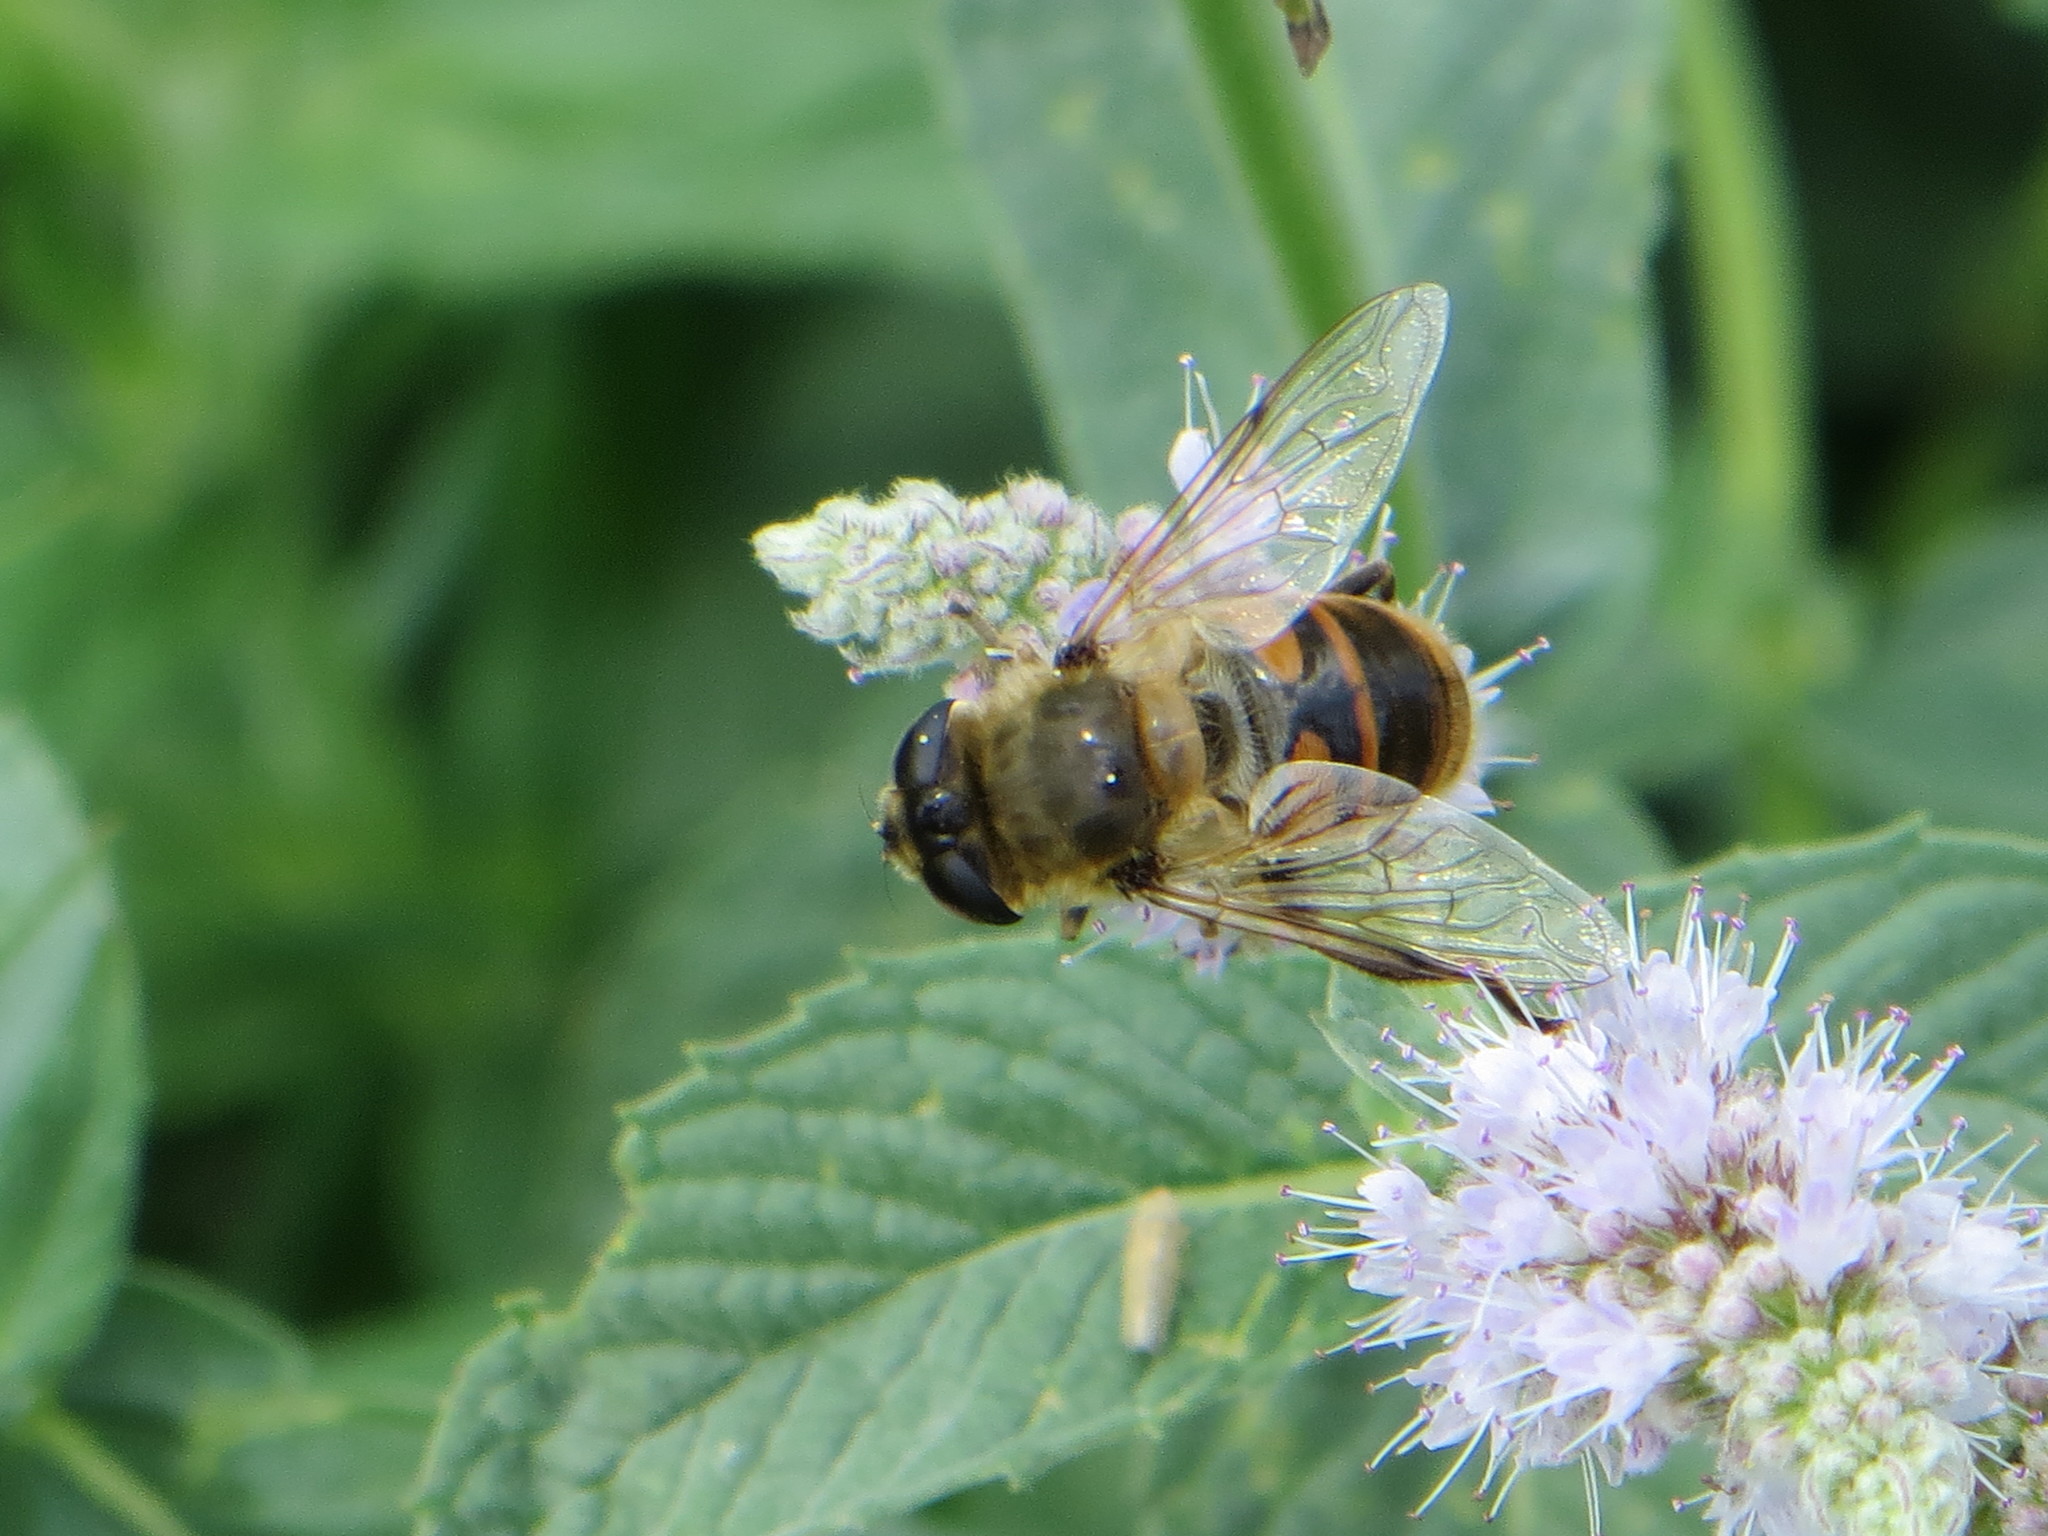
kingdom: Animalia
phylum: Arthropoda
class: Insecta
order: Diptera
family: Syrphidae
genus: Eristalis
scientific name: Eristalis tenax
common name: Drone fly
